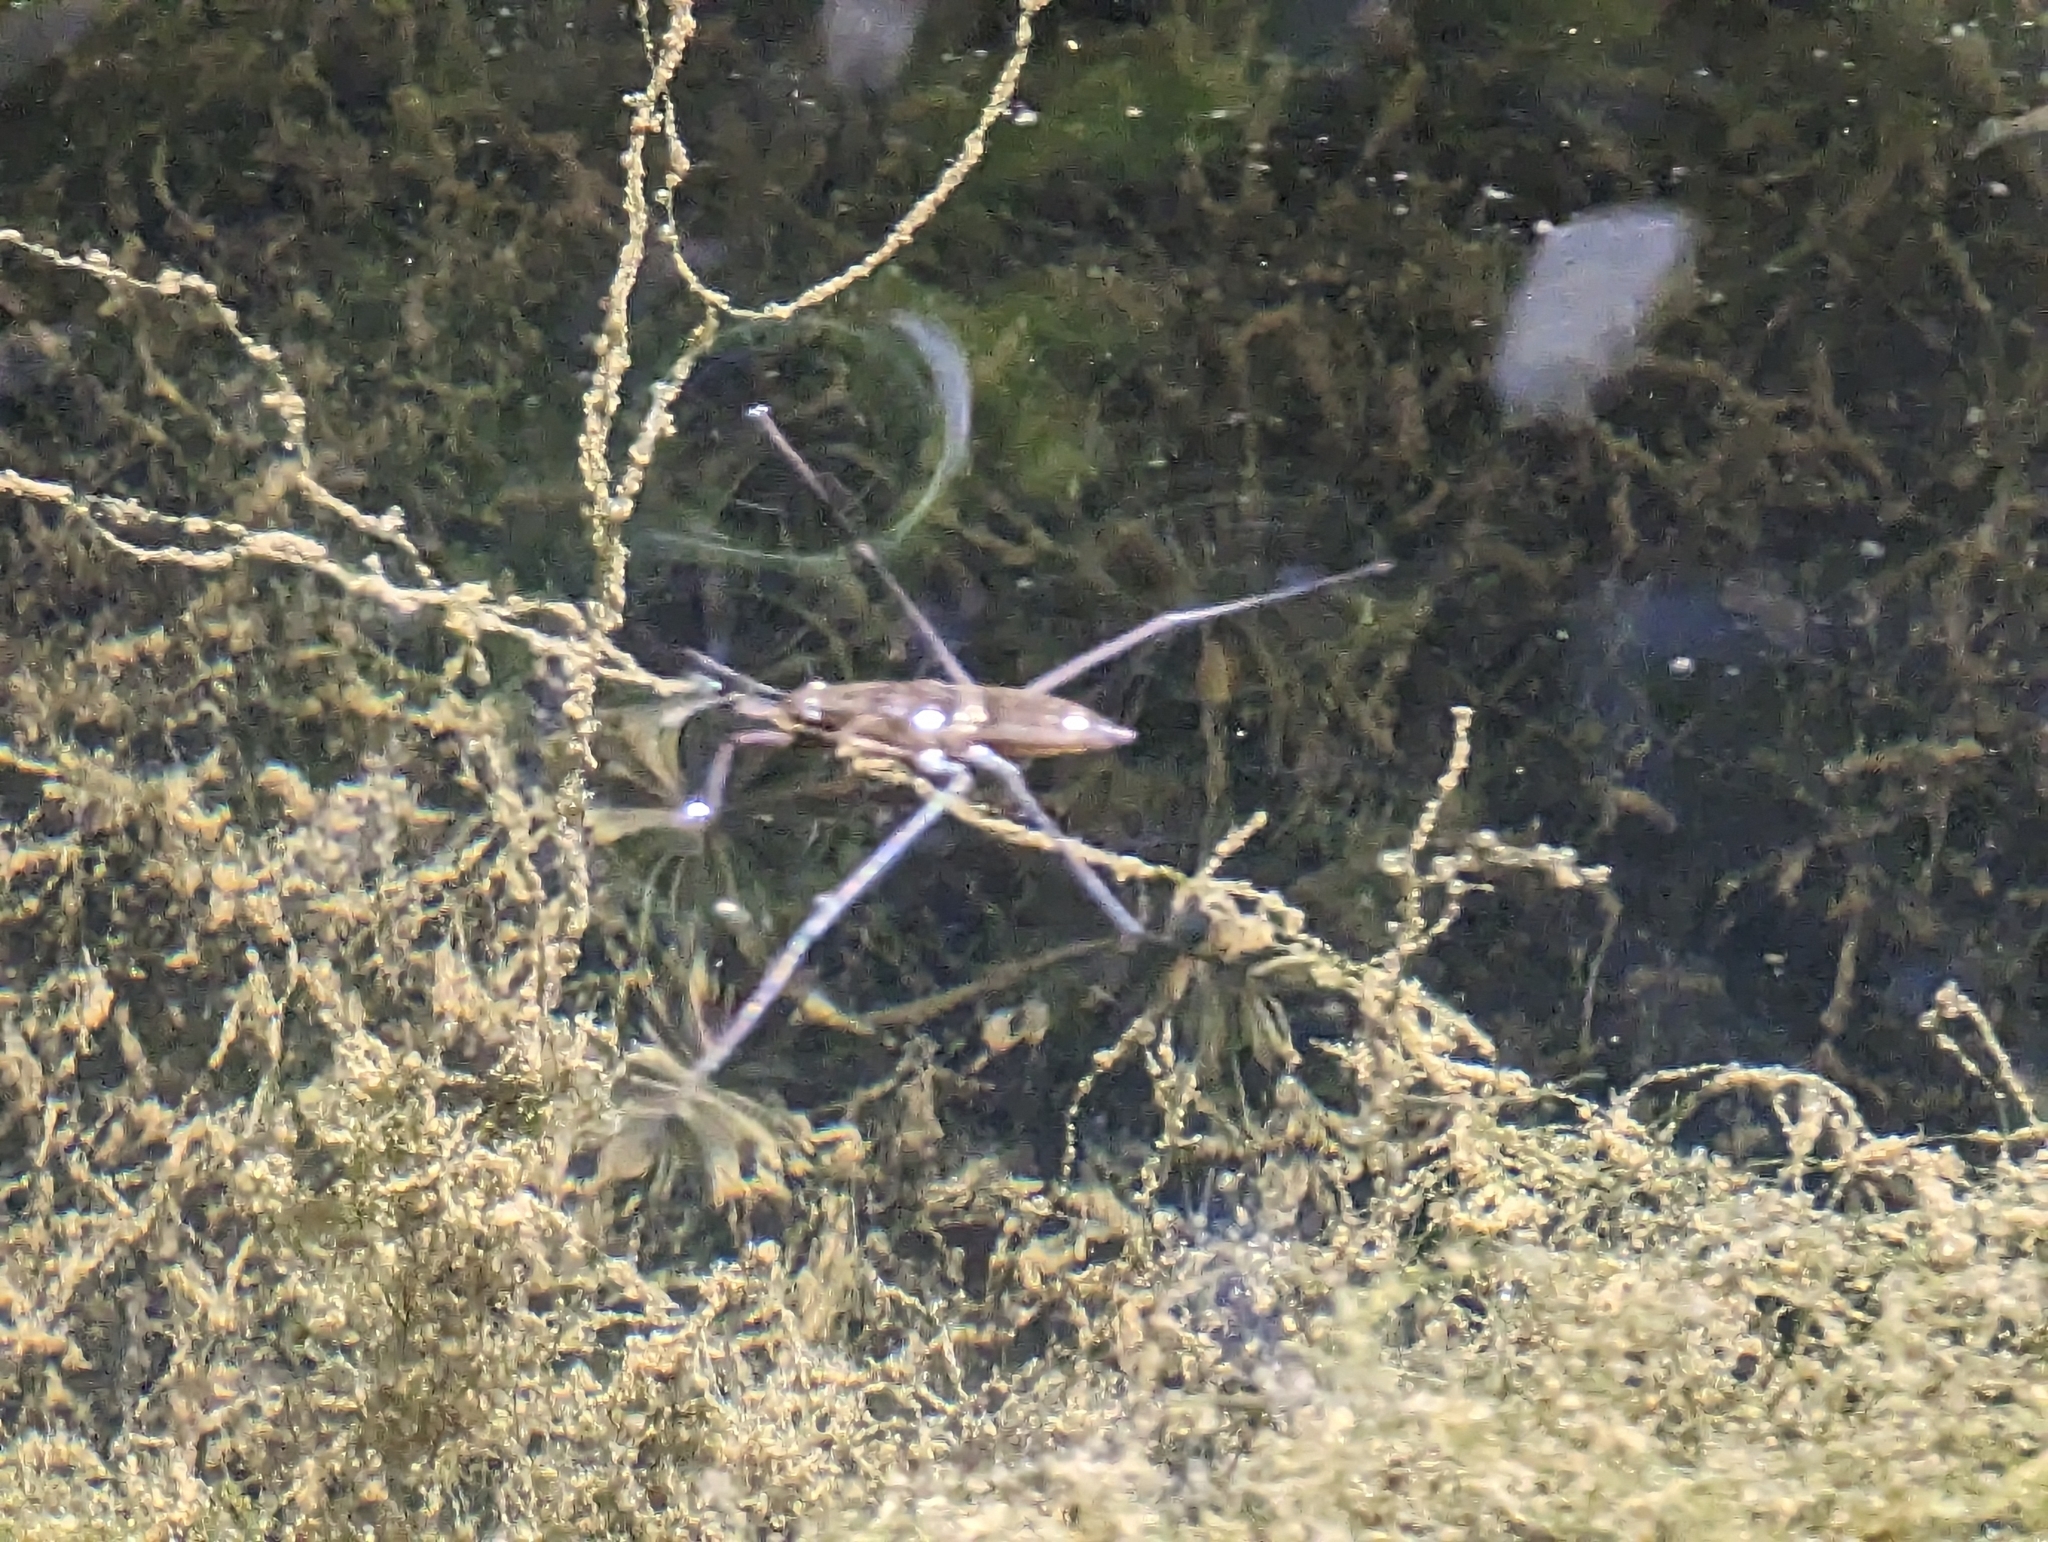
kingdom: Animalia
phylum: Arthropoda
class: Insecta
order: Hemiptera
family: Gerridae
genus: Aquarius
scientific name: Aquarius remigis
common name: Common water strider
